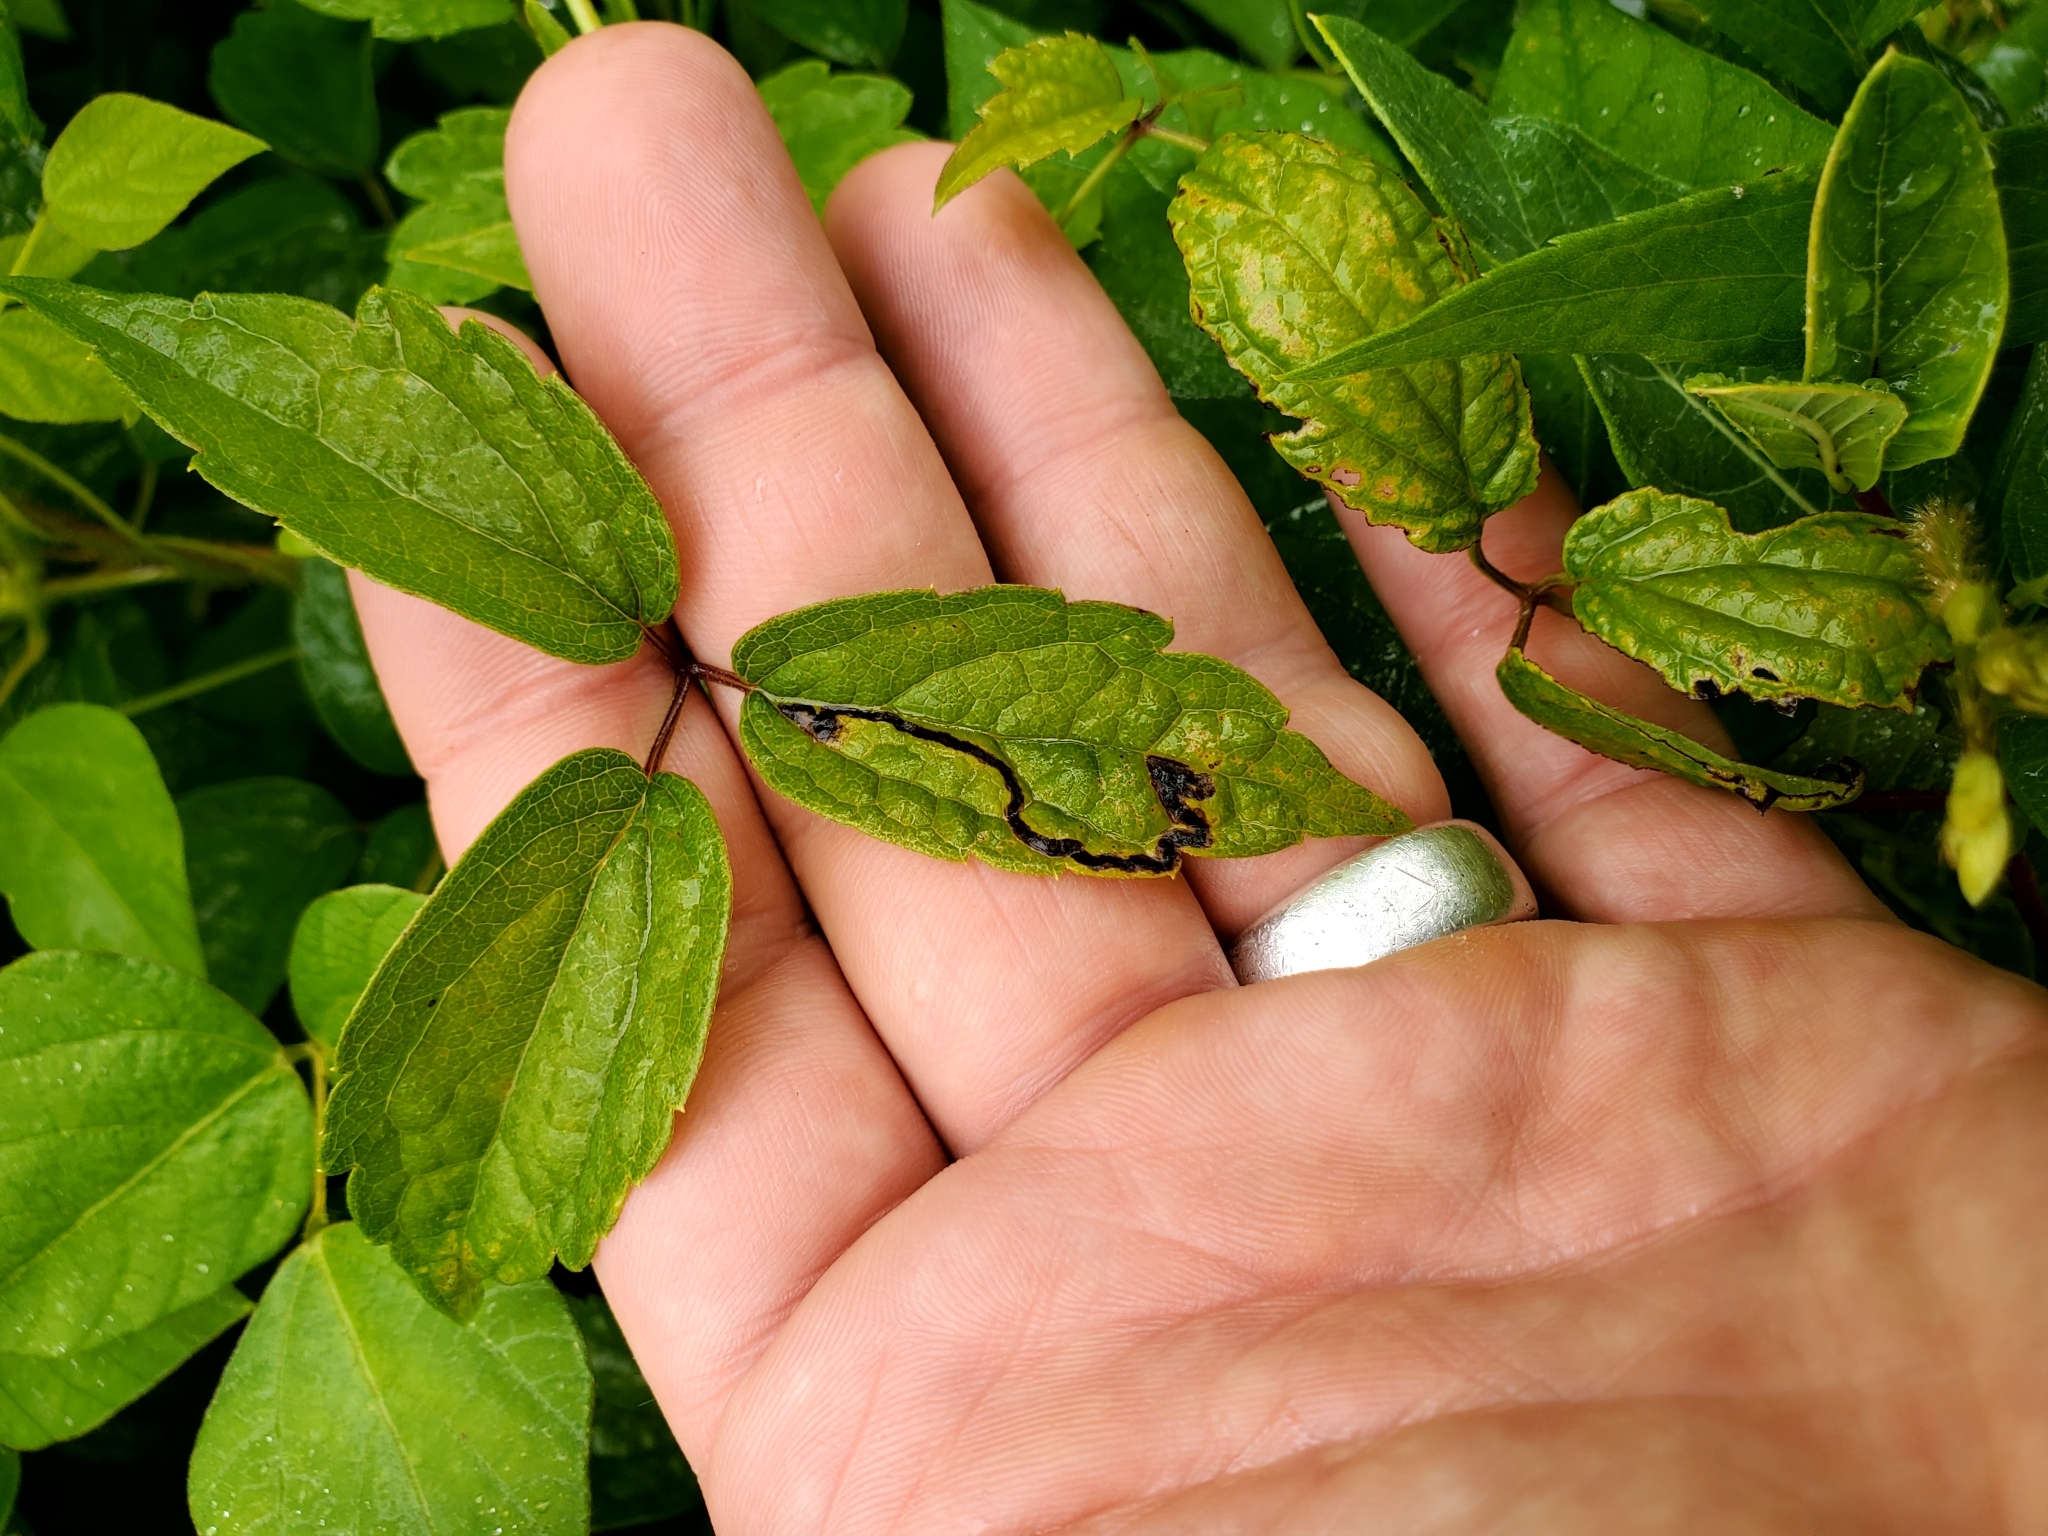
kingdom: Animalia
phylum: Arthropoda
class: Insecta
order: Diptera
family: Agromyzidae
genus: Phytomyza
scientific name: Phytomyza loewii
